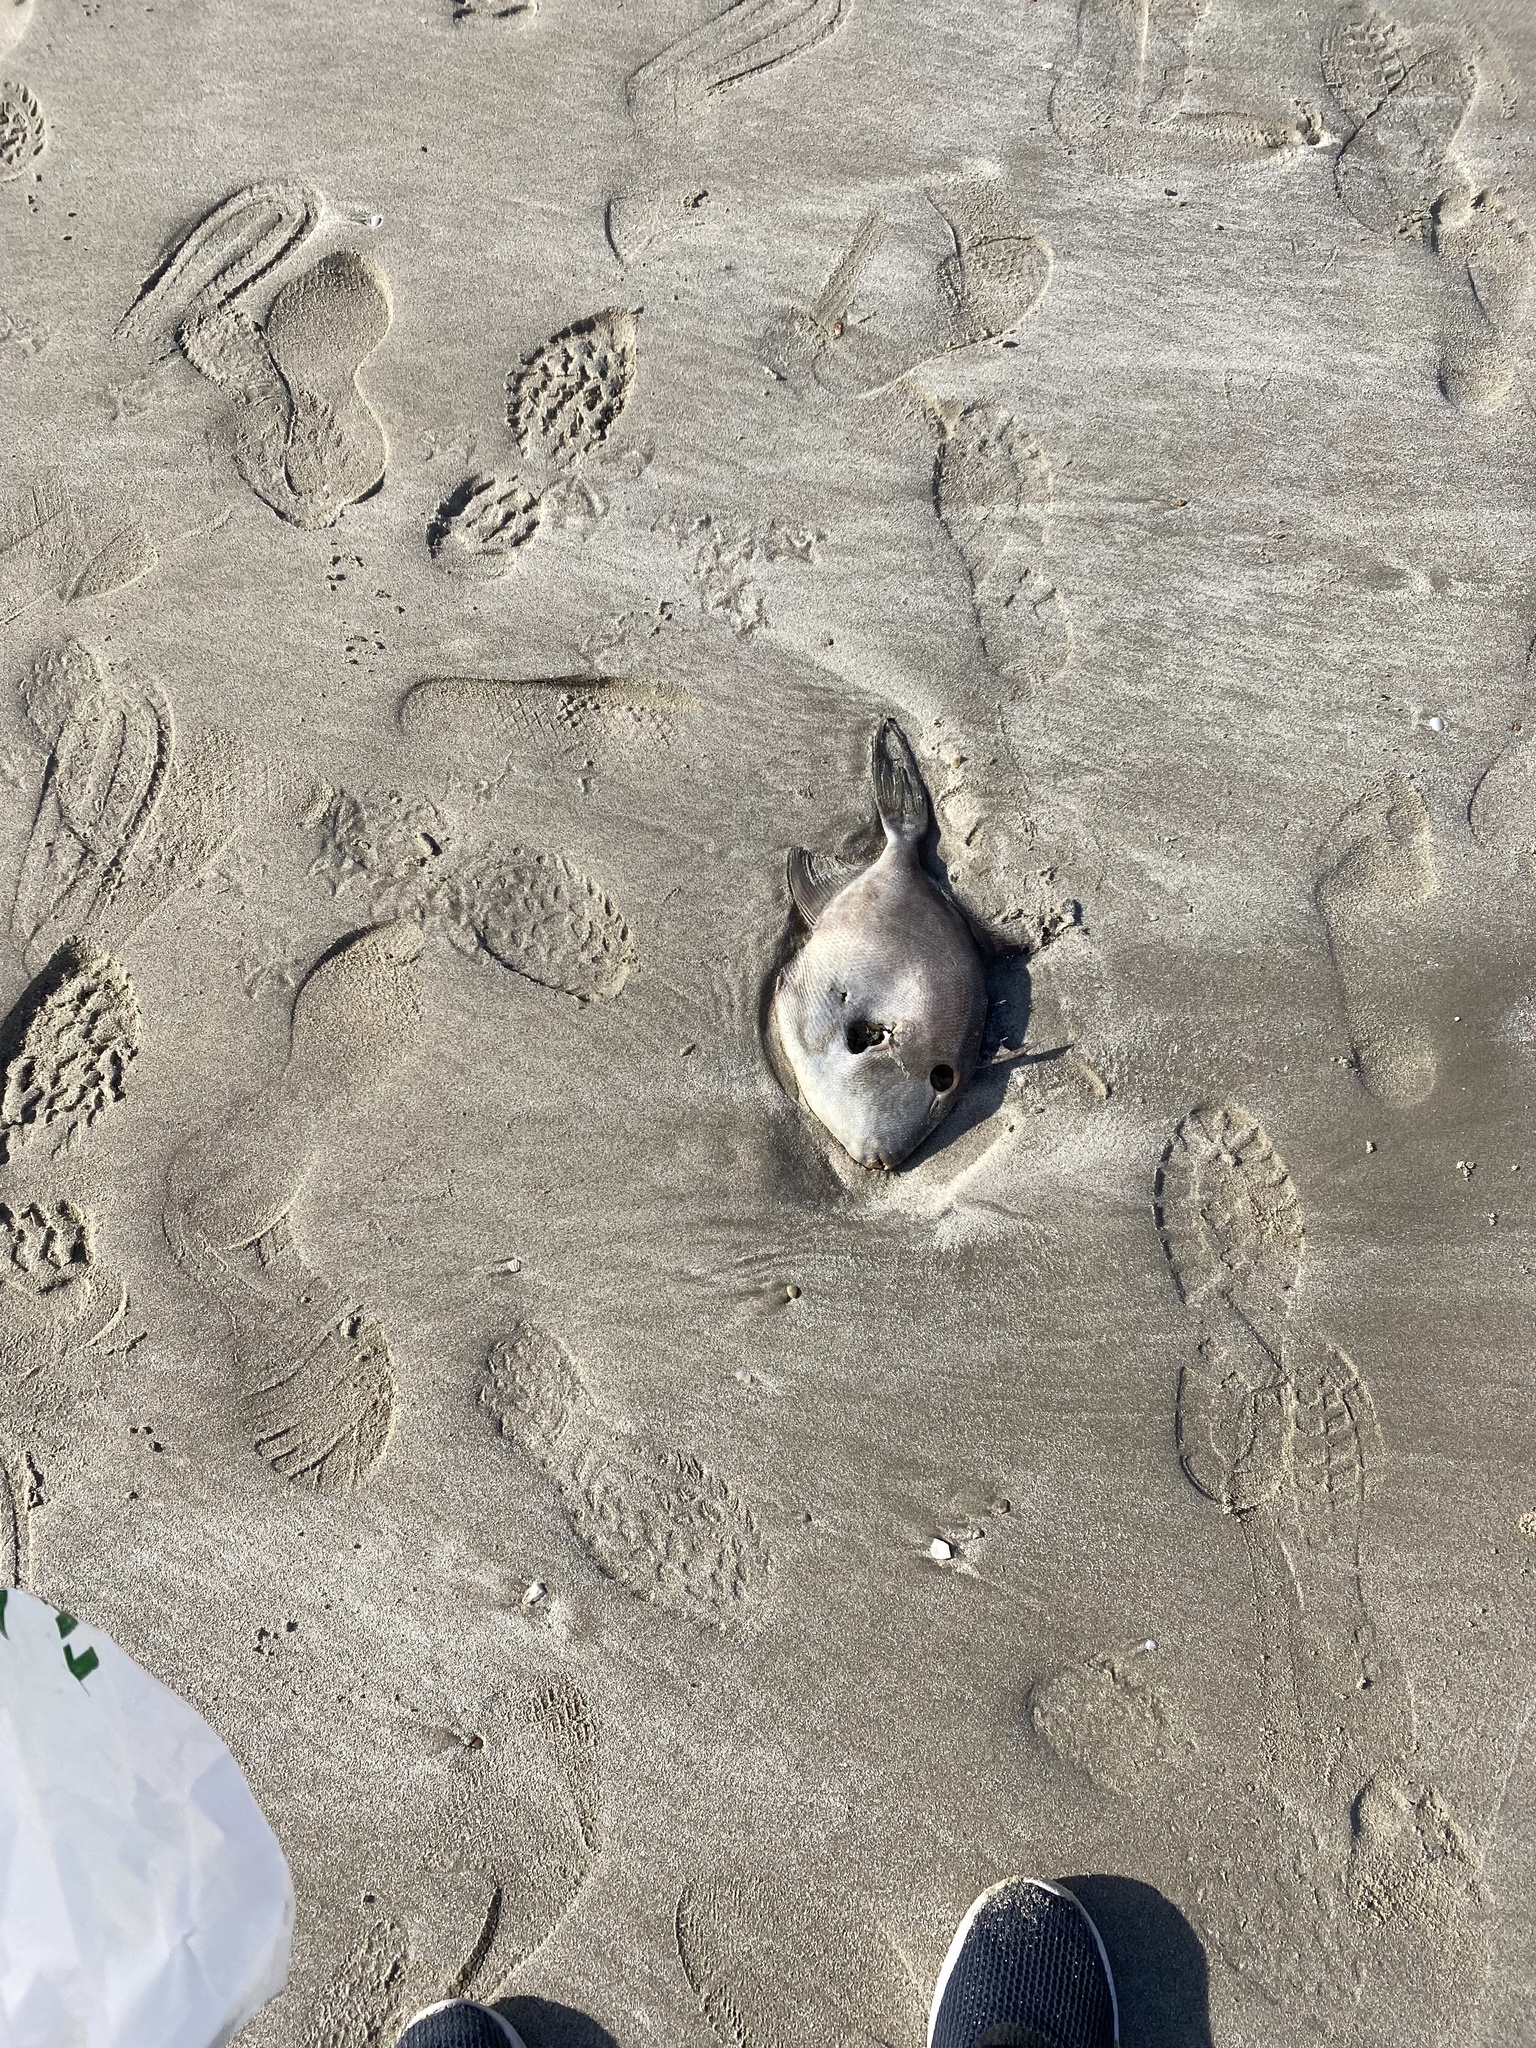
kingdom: Animalia
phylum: Chordata
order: Tetraodontiformes
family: Balistidae
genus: Balistes
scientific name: Balistes polylepis
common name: Finescale triggerfish
